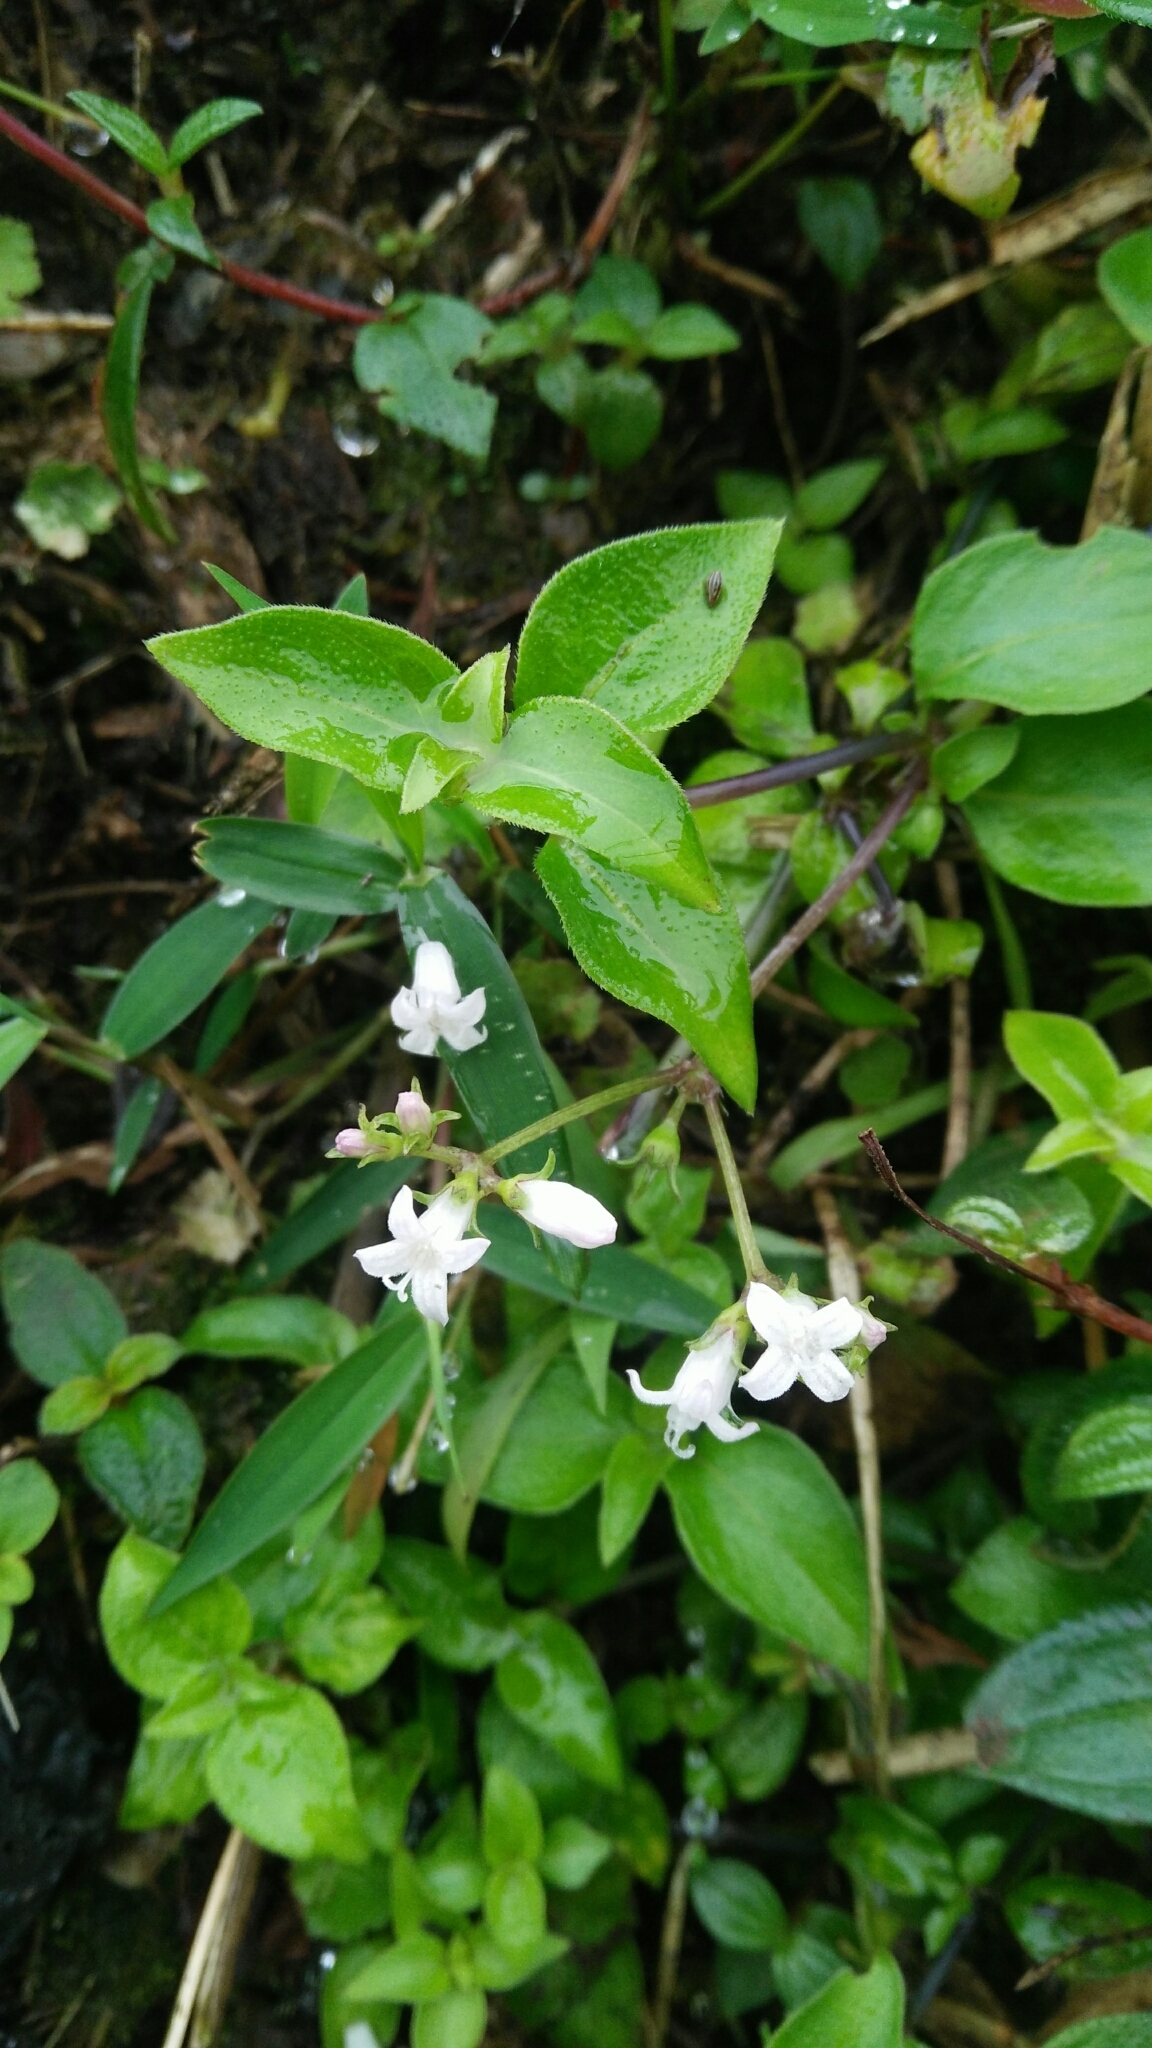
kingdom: Plantae
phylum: Tracheophyta
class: Magnoliopsida
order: Gentianales
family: Rubiaceae
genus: Neanotis
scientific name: Neanotis formosana
